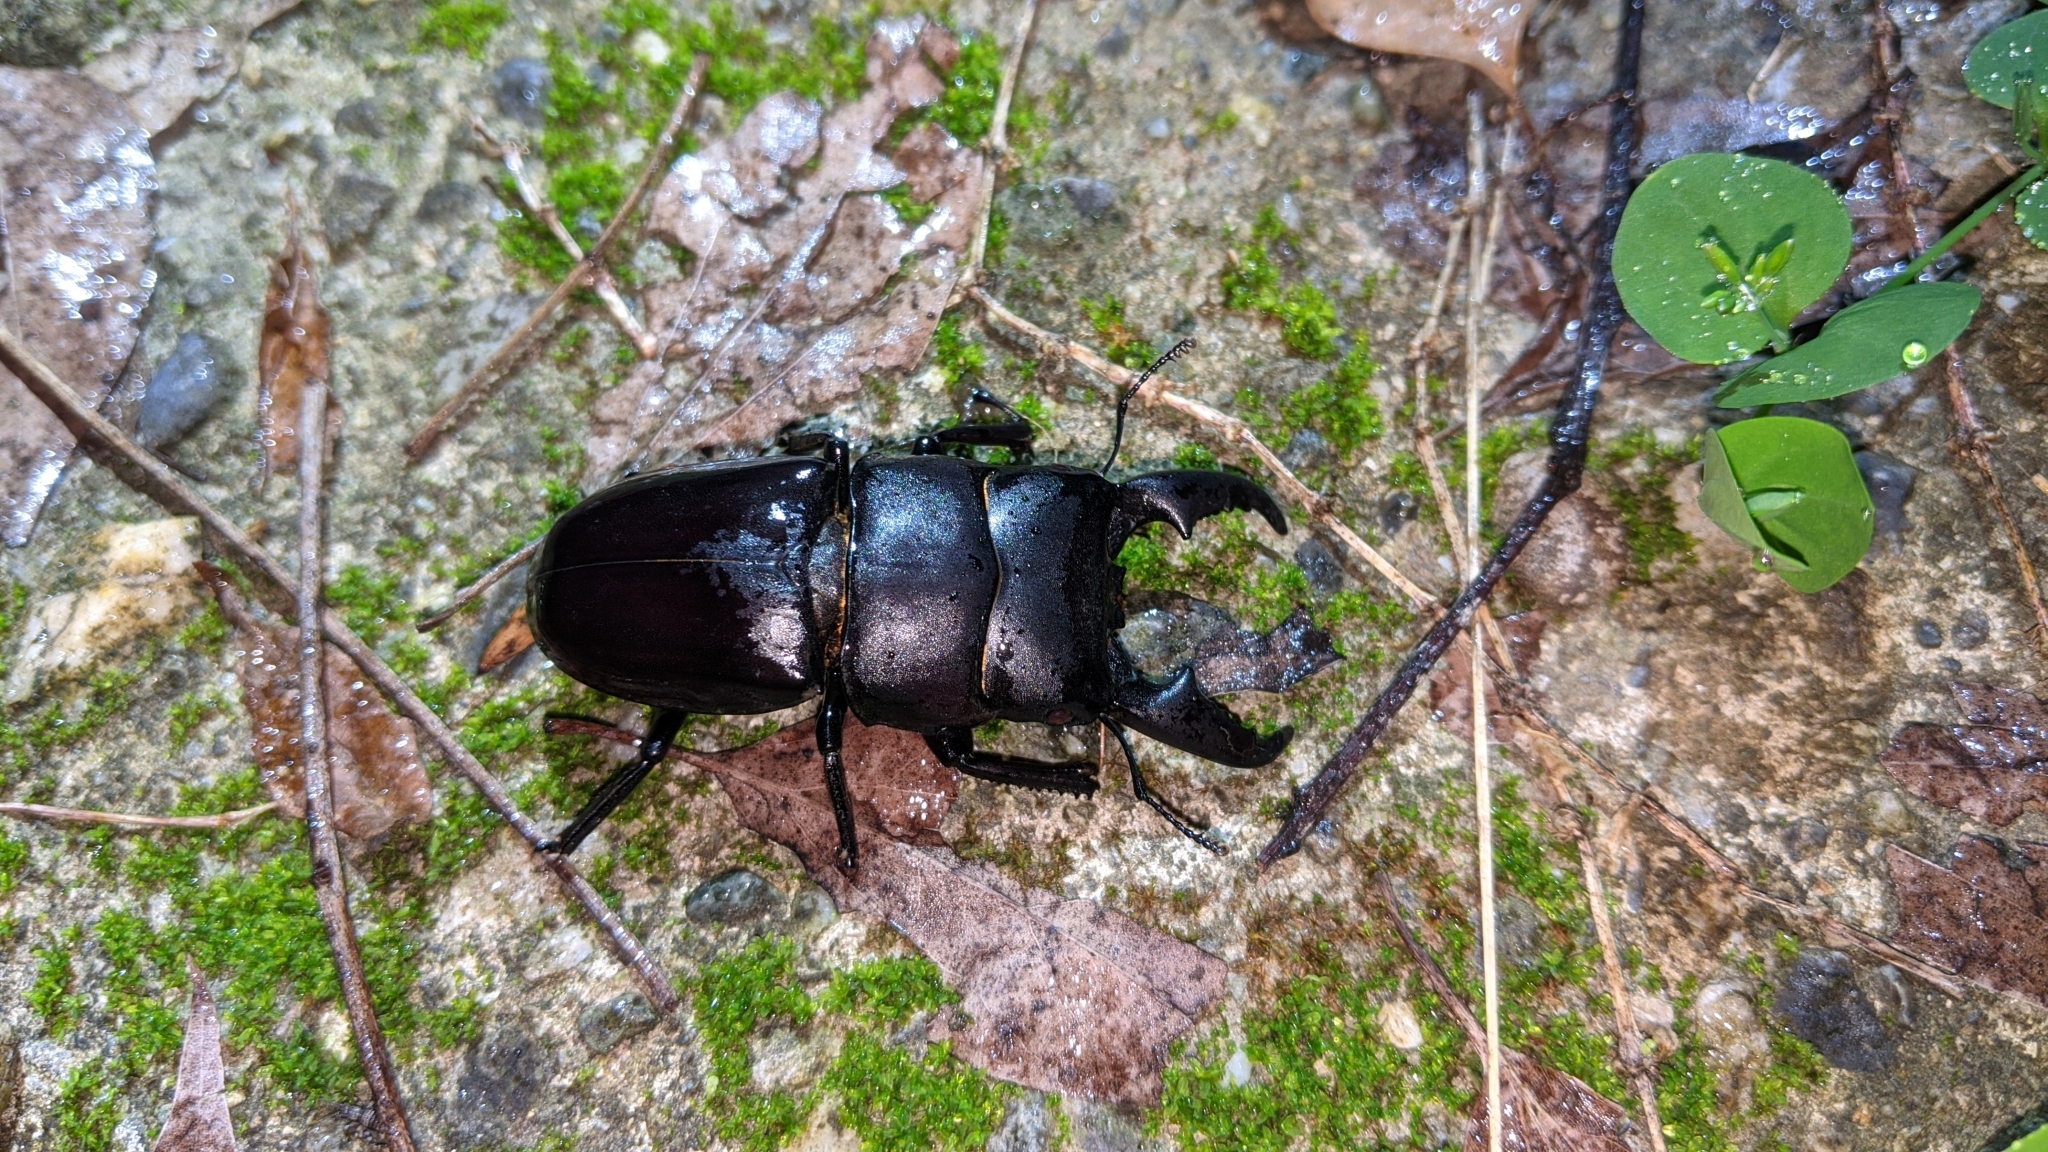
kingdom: Animalia
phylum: Arthropoda
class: Insecta
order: Coleoptera
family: Lucanidae
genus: Serrognathus
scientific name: Serrognathus titanus
